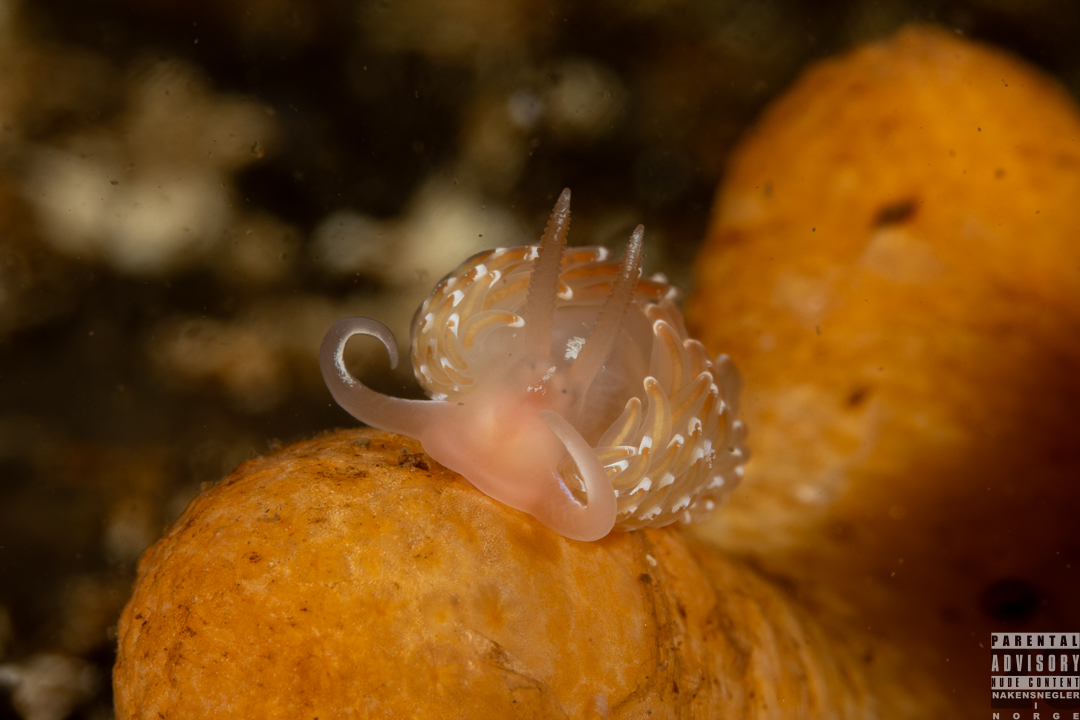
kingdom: Animalia
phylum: Mollusca
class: Gastropoda
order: Nudibranchia
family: Facelinidae
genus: Facelina
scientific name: Facelina bostoniensis
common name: Boston facelina
